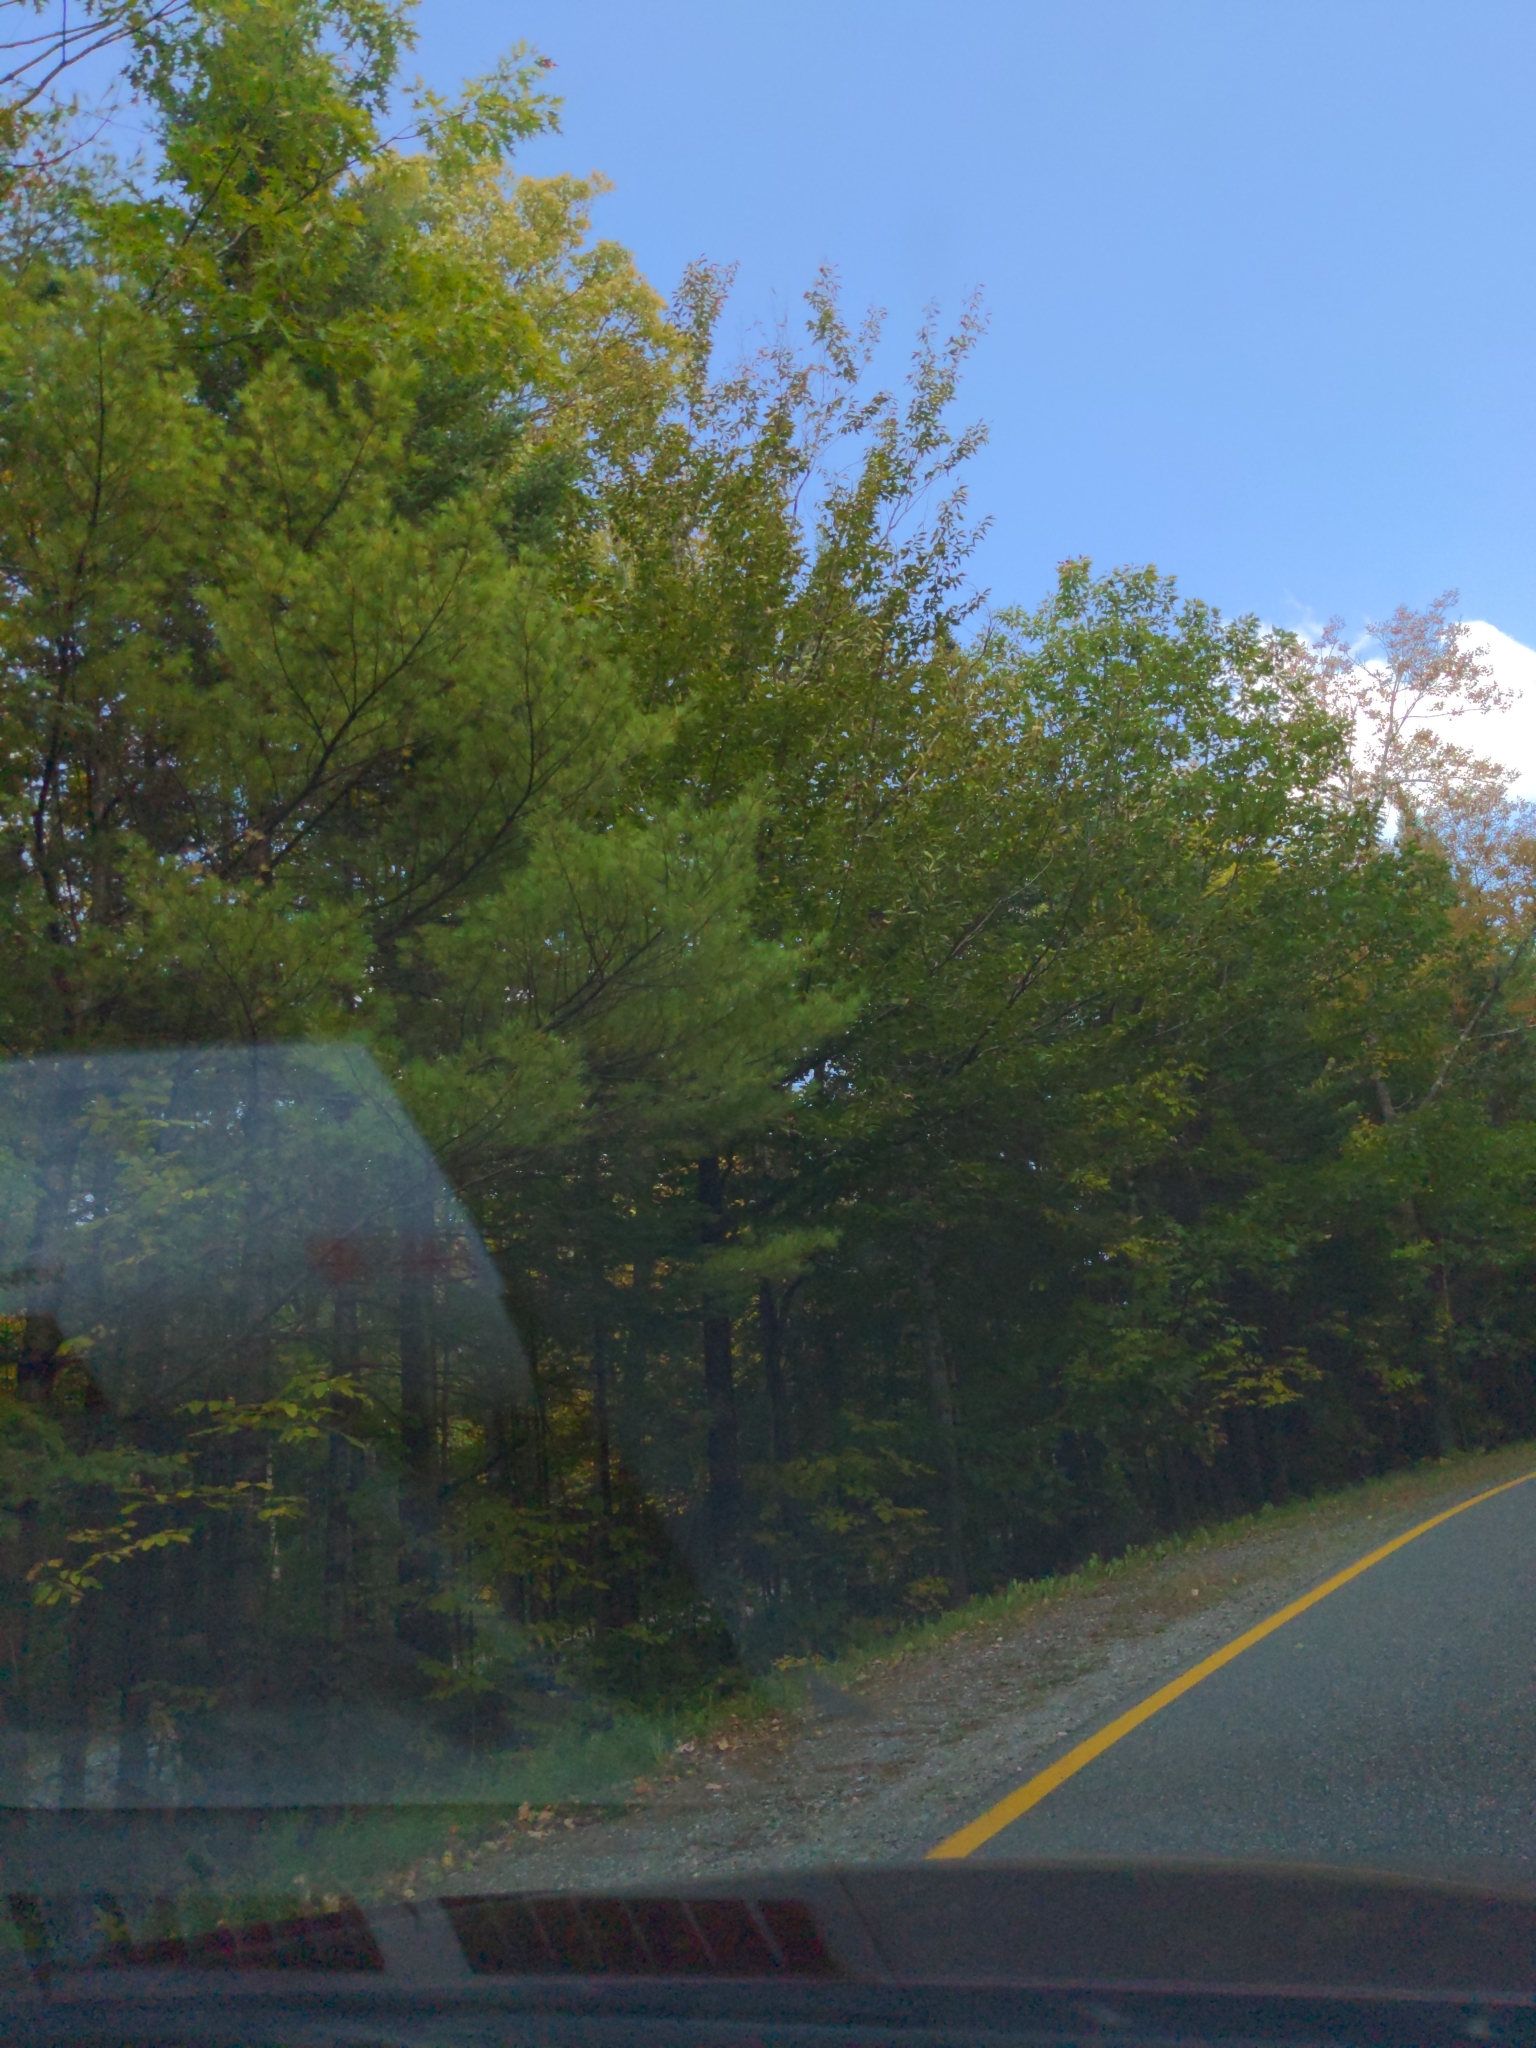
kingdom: Plantae
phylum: Tracheophyta
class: Pinopsida
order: Pinales
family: Pinaceae
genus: Pinus
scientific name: Pinus strobus
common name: Weymouth pine
